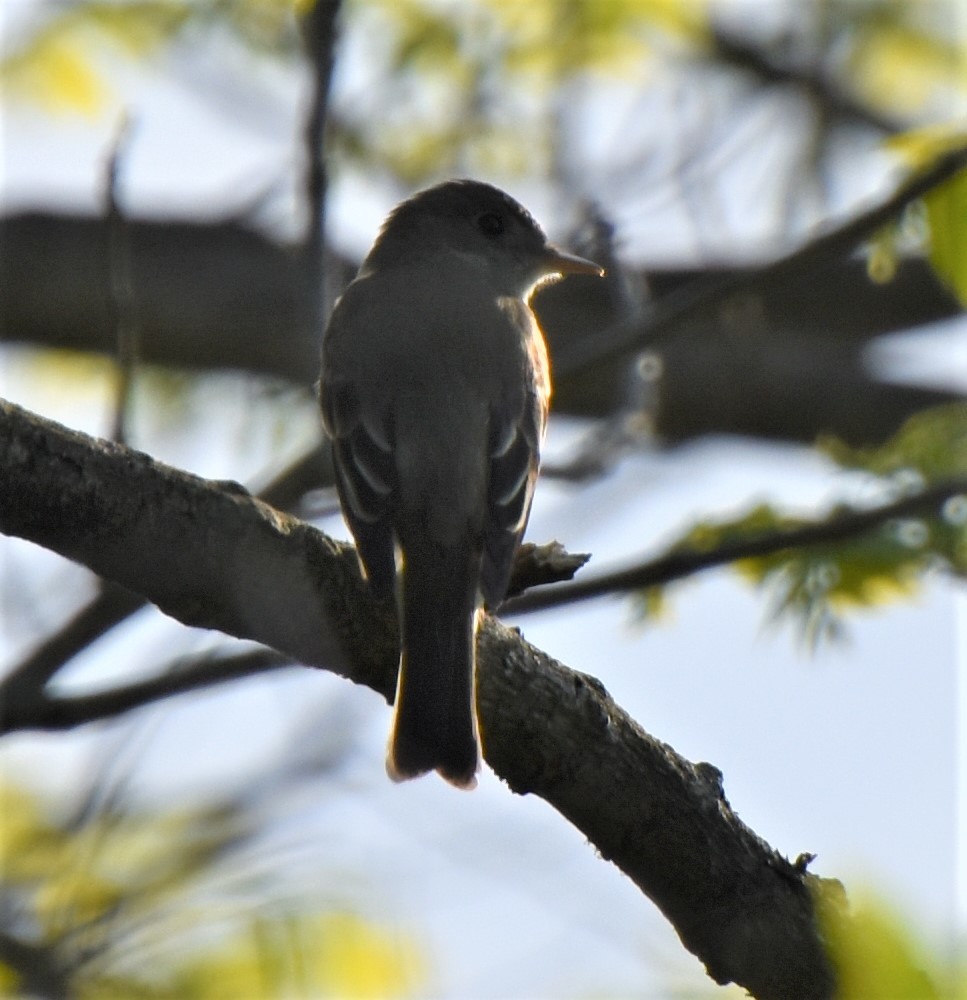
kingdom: Animalia
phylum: Chordata
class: Aves
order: Passeriformes
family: Tyrannidae
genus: Empidonax
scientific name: Empidonax traillii
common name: Willow flycatcher
